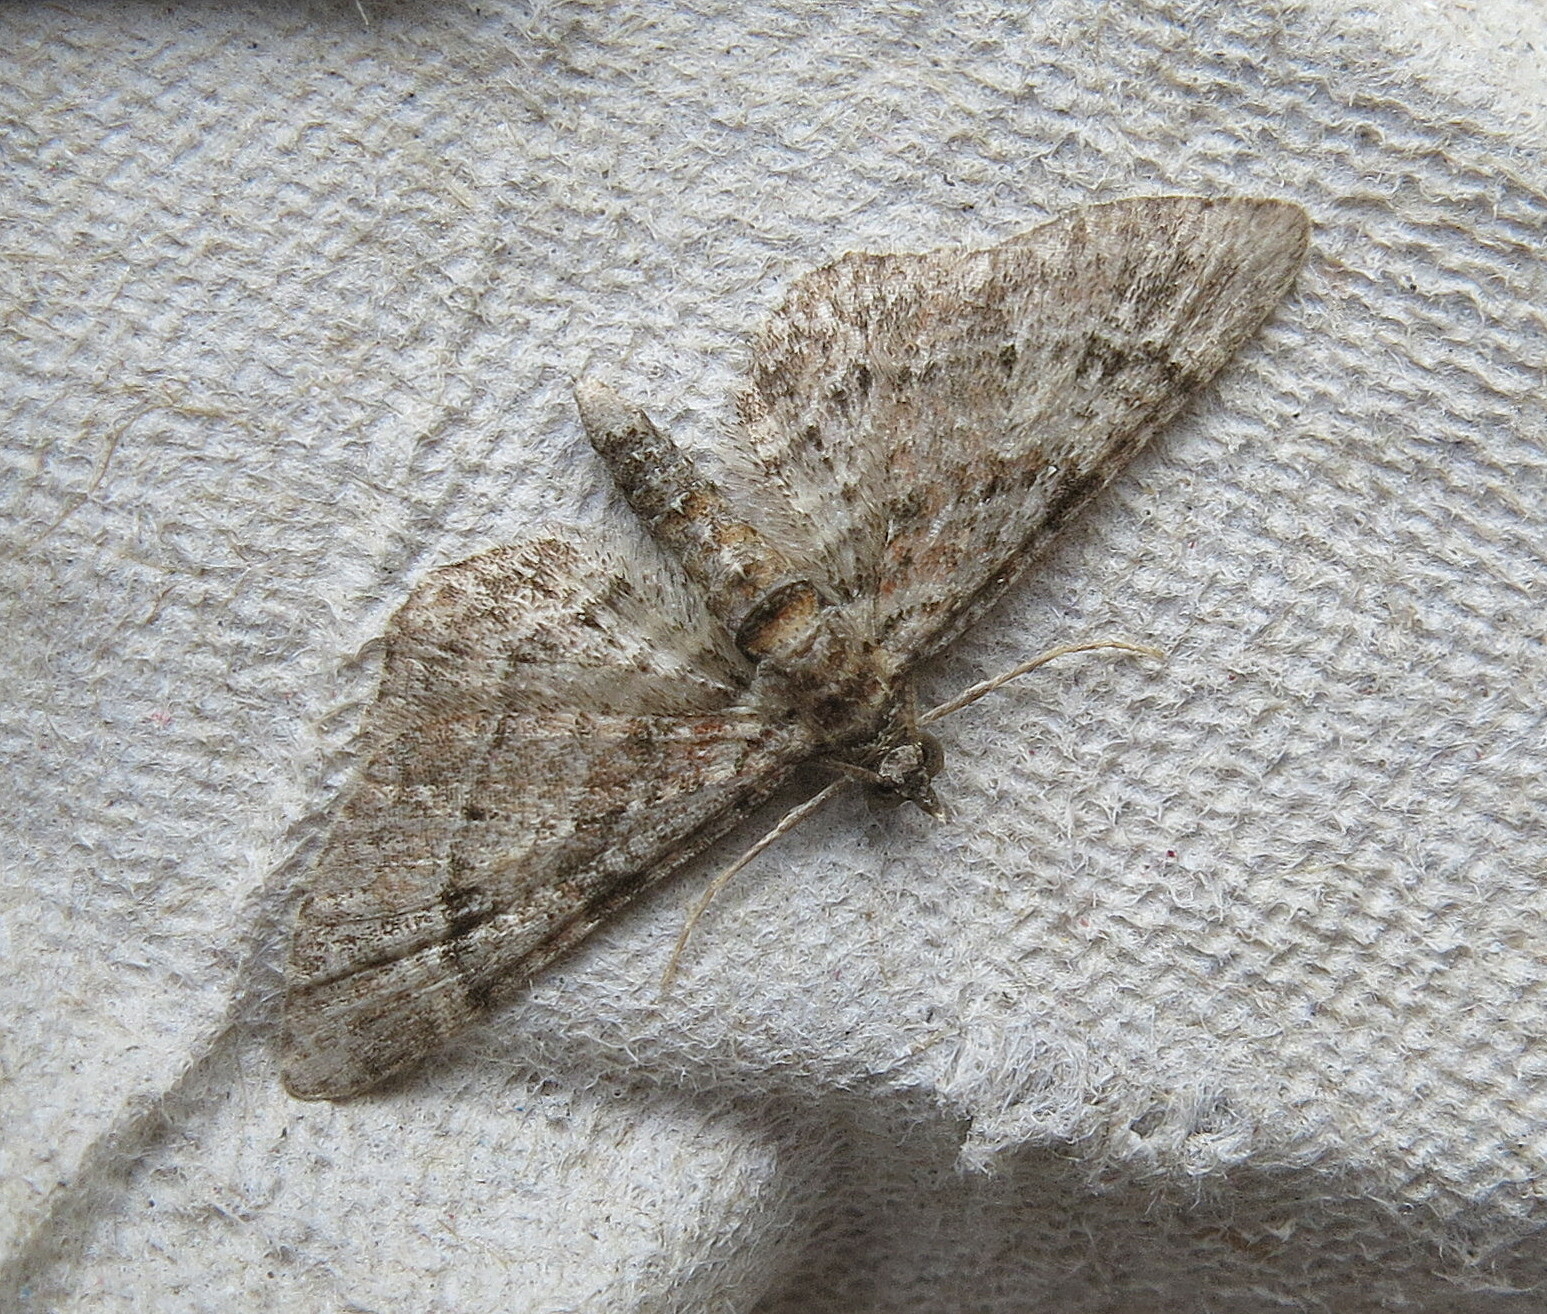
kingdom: Animalia
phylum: Arthropoda
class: Insecta
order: Lepidoptera
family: Geometridae
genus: Gymnoscelis
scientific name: Gymnoscelis rufifasciata
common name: Double-striped pug
